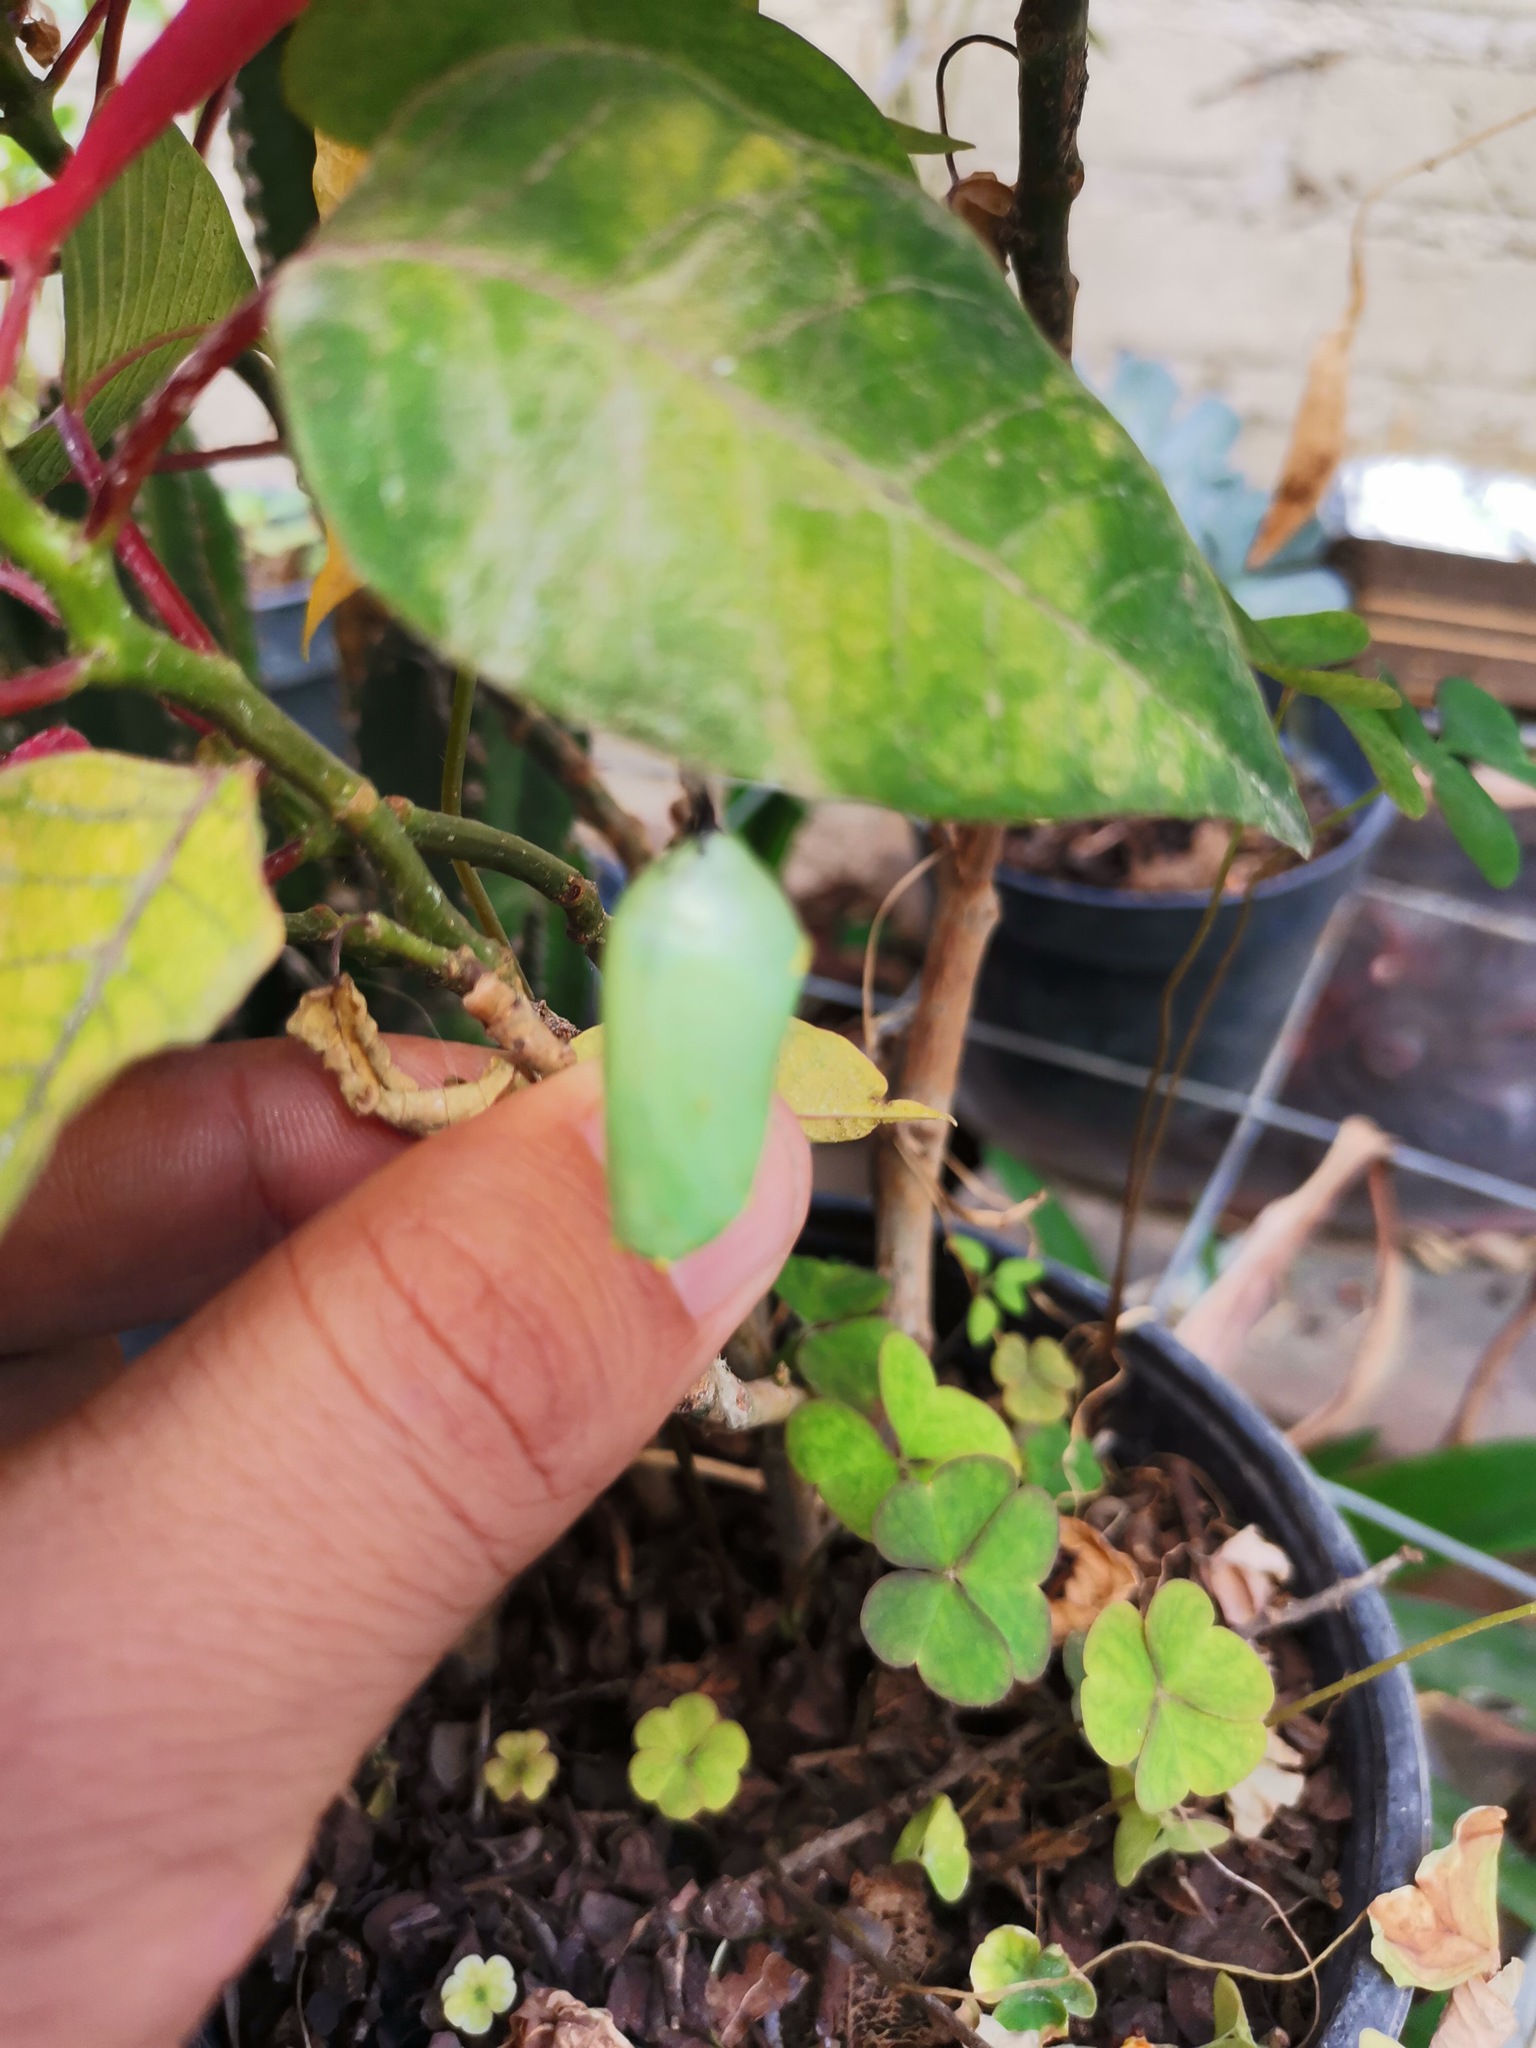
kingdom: Animalia
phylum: Arthropoda
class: Insecta
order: Lepidoptera
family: Nymphalidae
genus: Danaus
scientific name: Danaus plexippus
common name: Monarch
